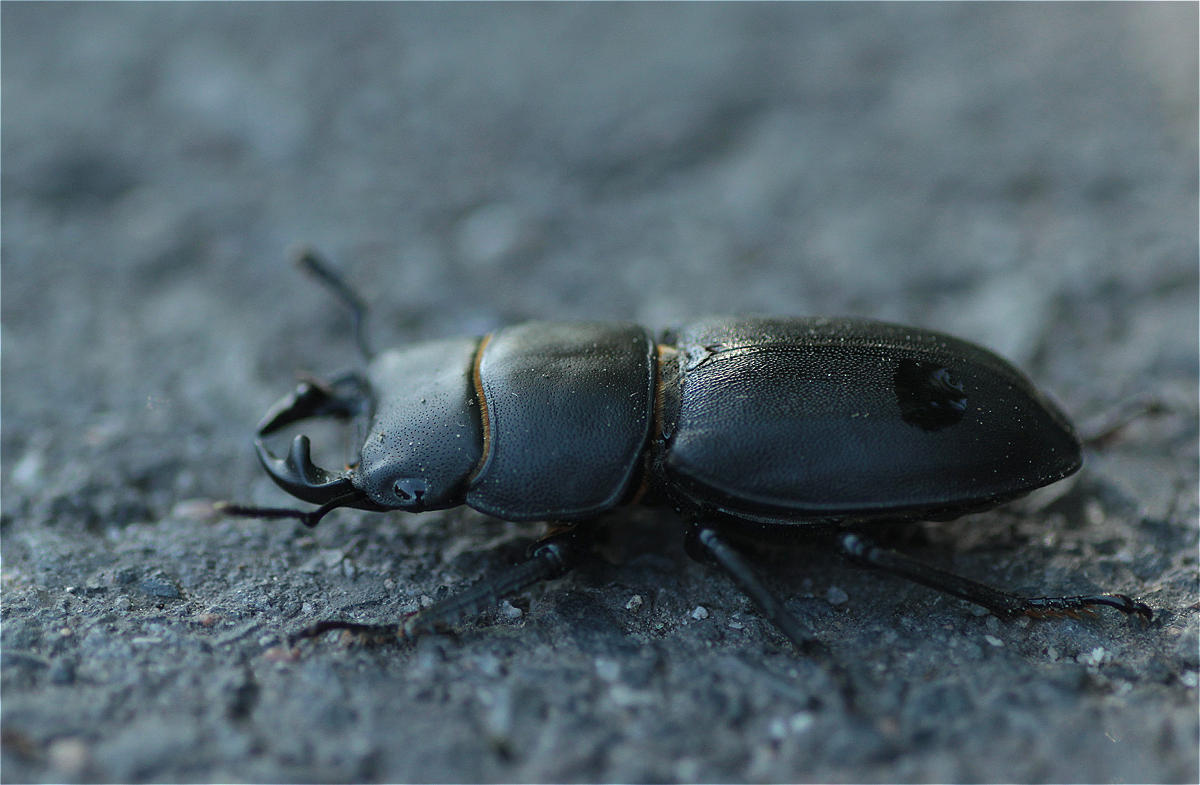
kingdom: Animalia
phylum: Arthropoda
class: Insecta
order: Coleoptera
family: Lucanidae
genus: Dorcus
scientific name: Dorcus parallelipipedus
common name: Lesser stag beetle
